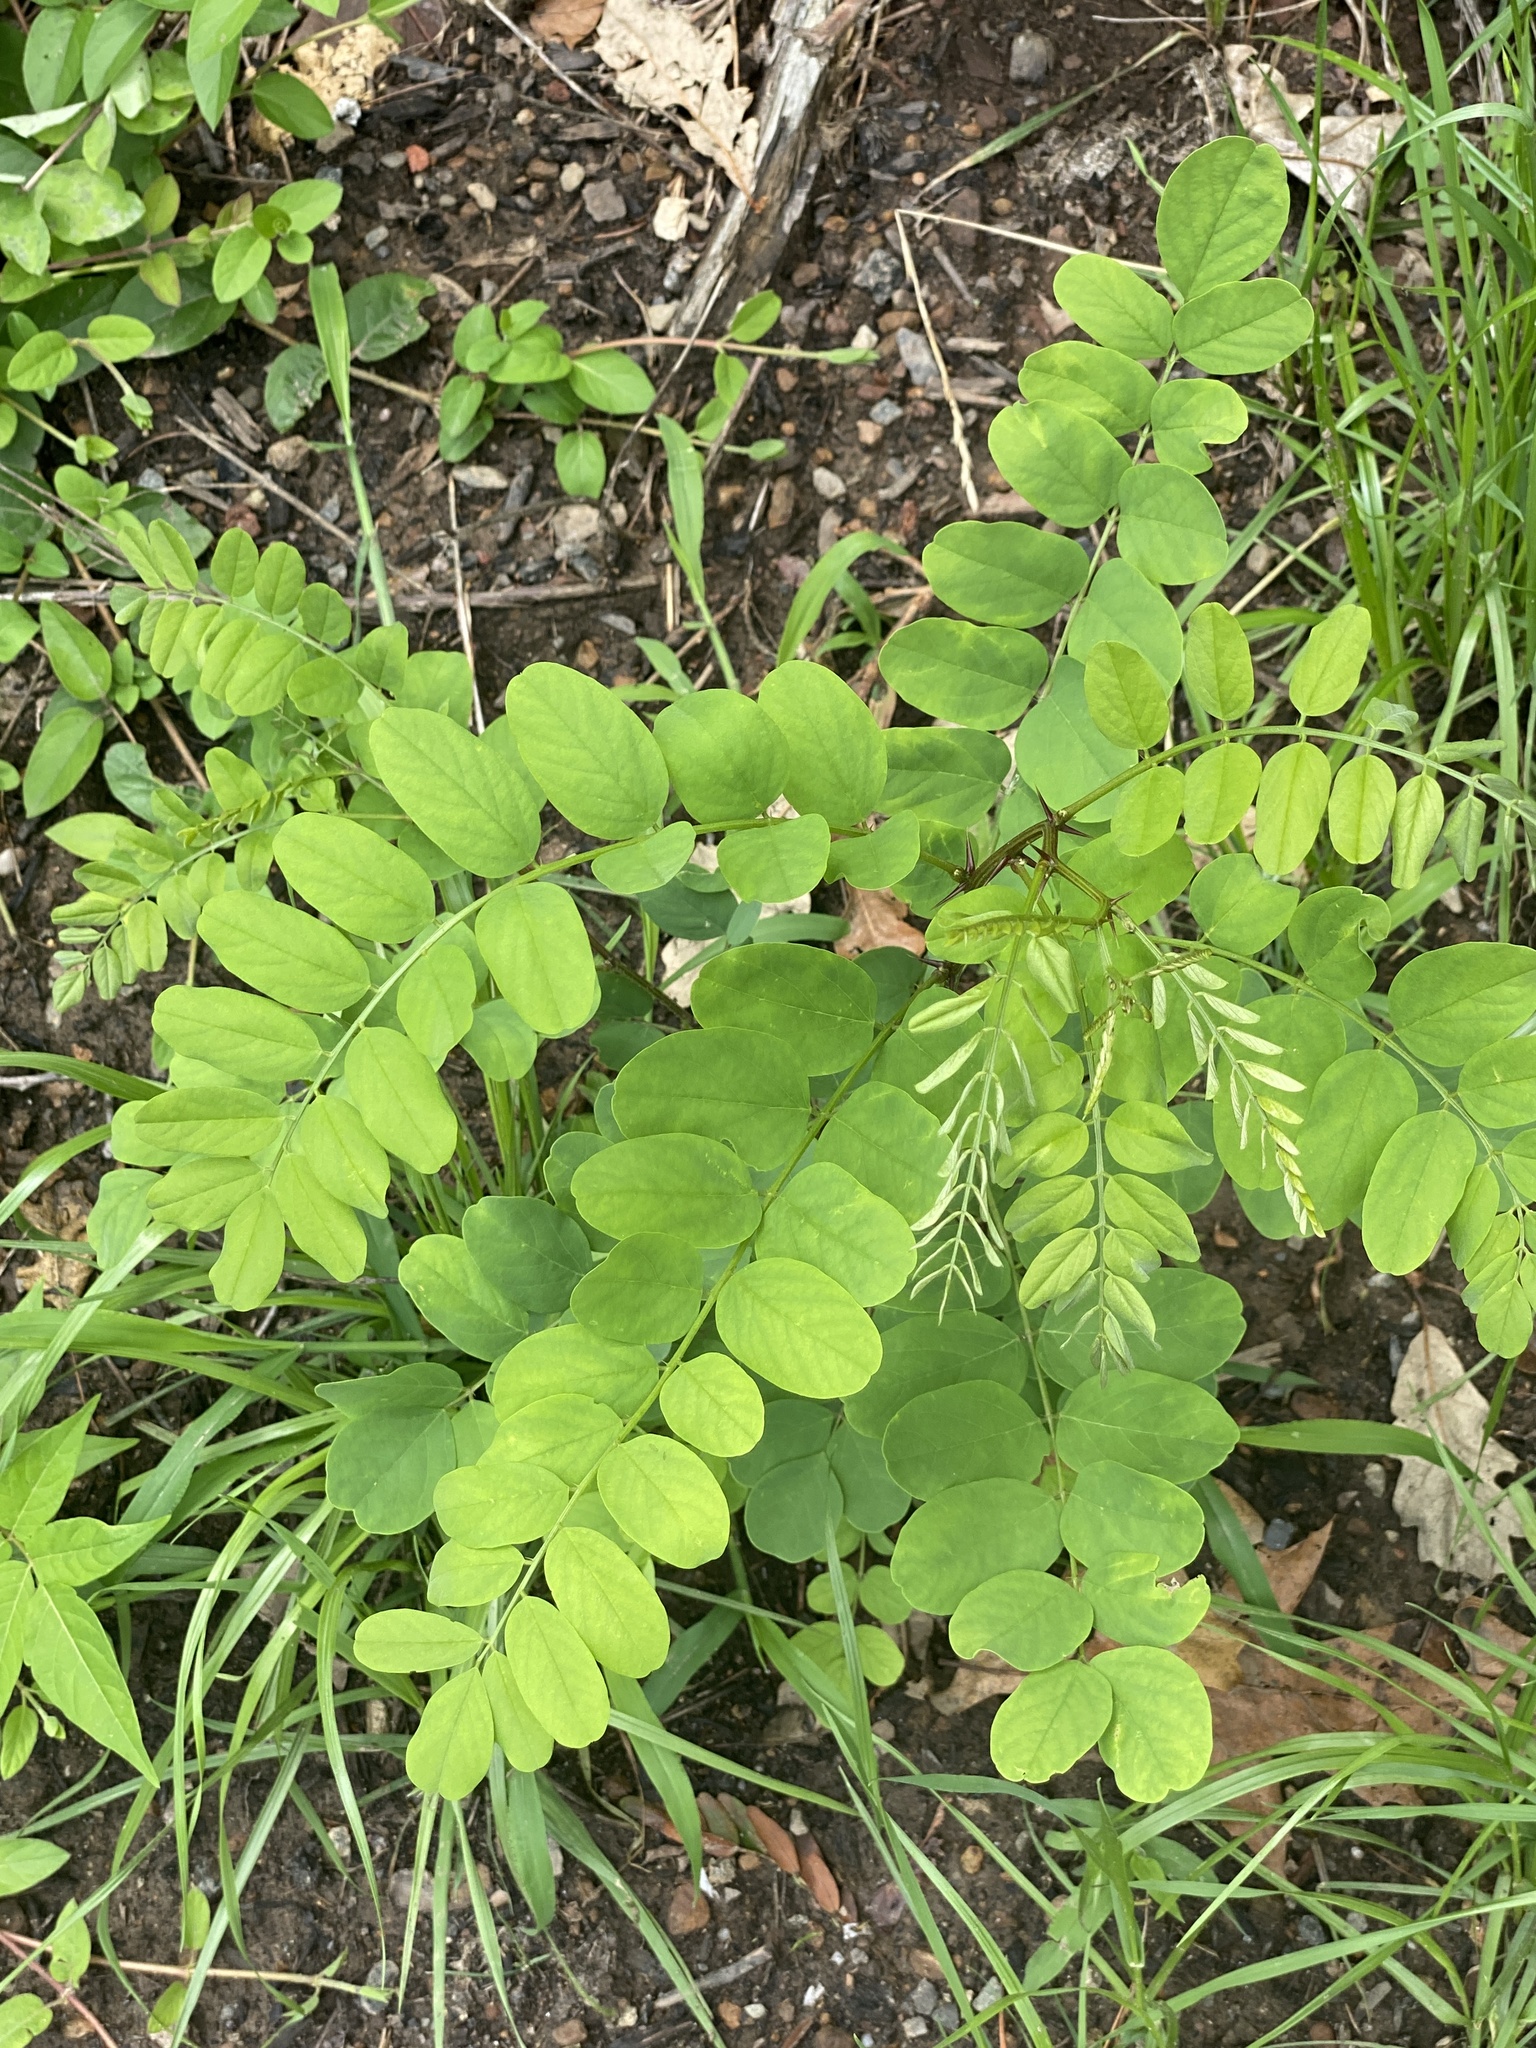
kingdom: Plantae
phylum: Tracheophyta
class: Magnoliopsida
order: Fabales
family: Fabaceae
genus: Robinia
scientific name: Robinia pseudoacacia
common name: Black locust
